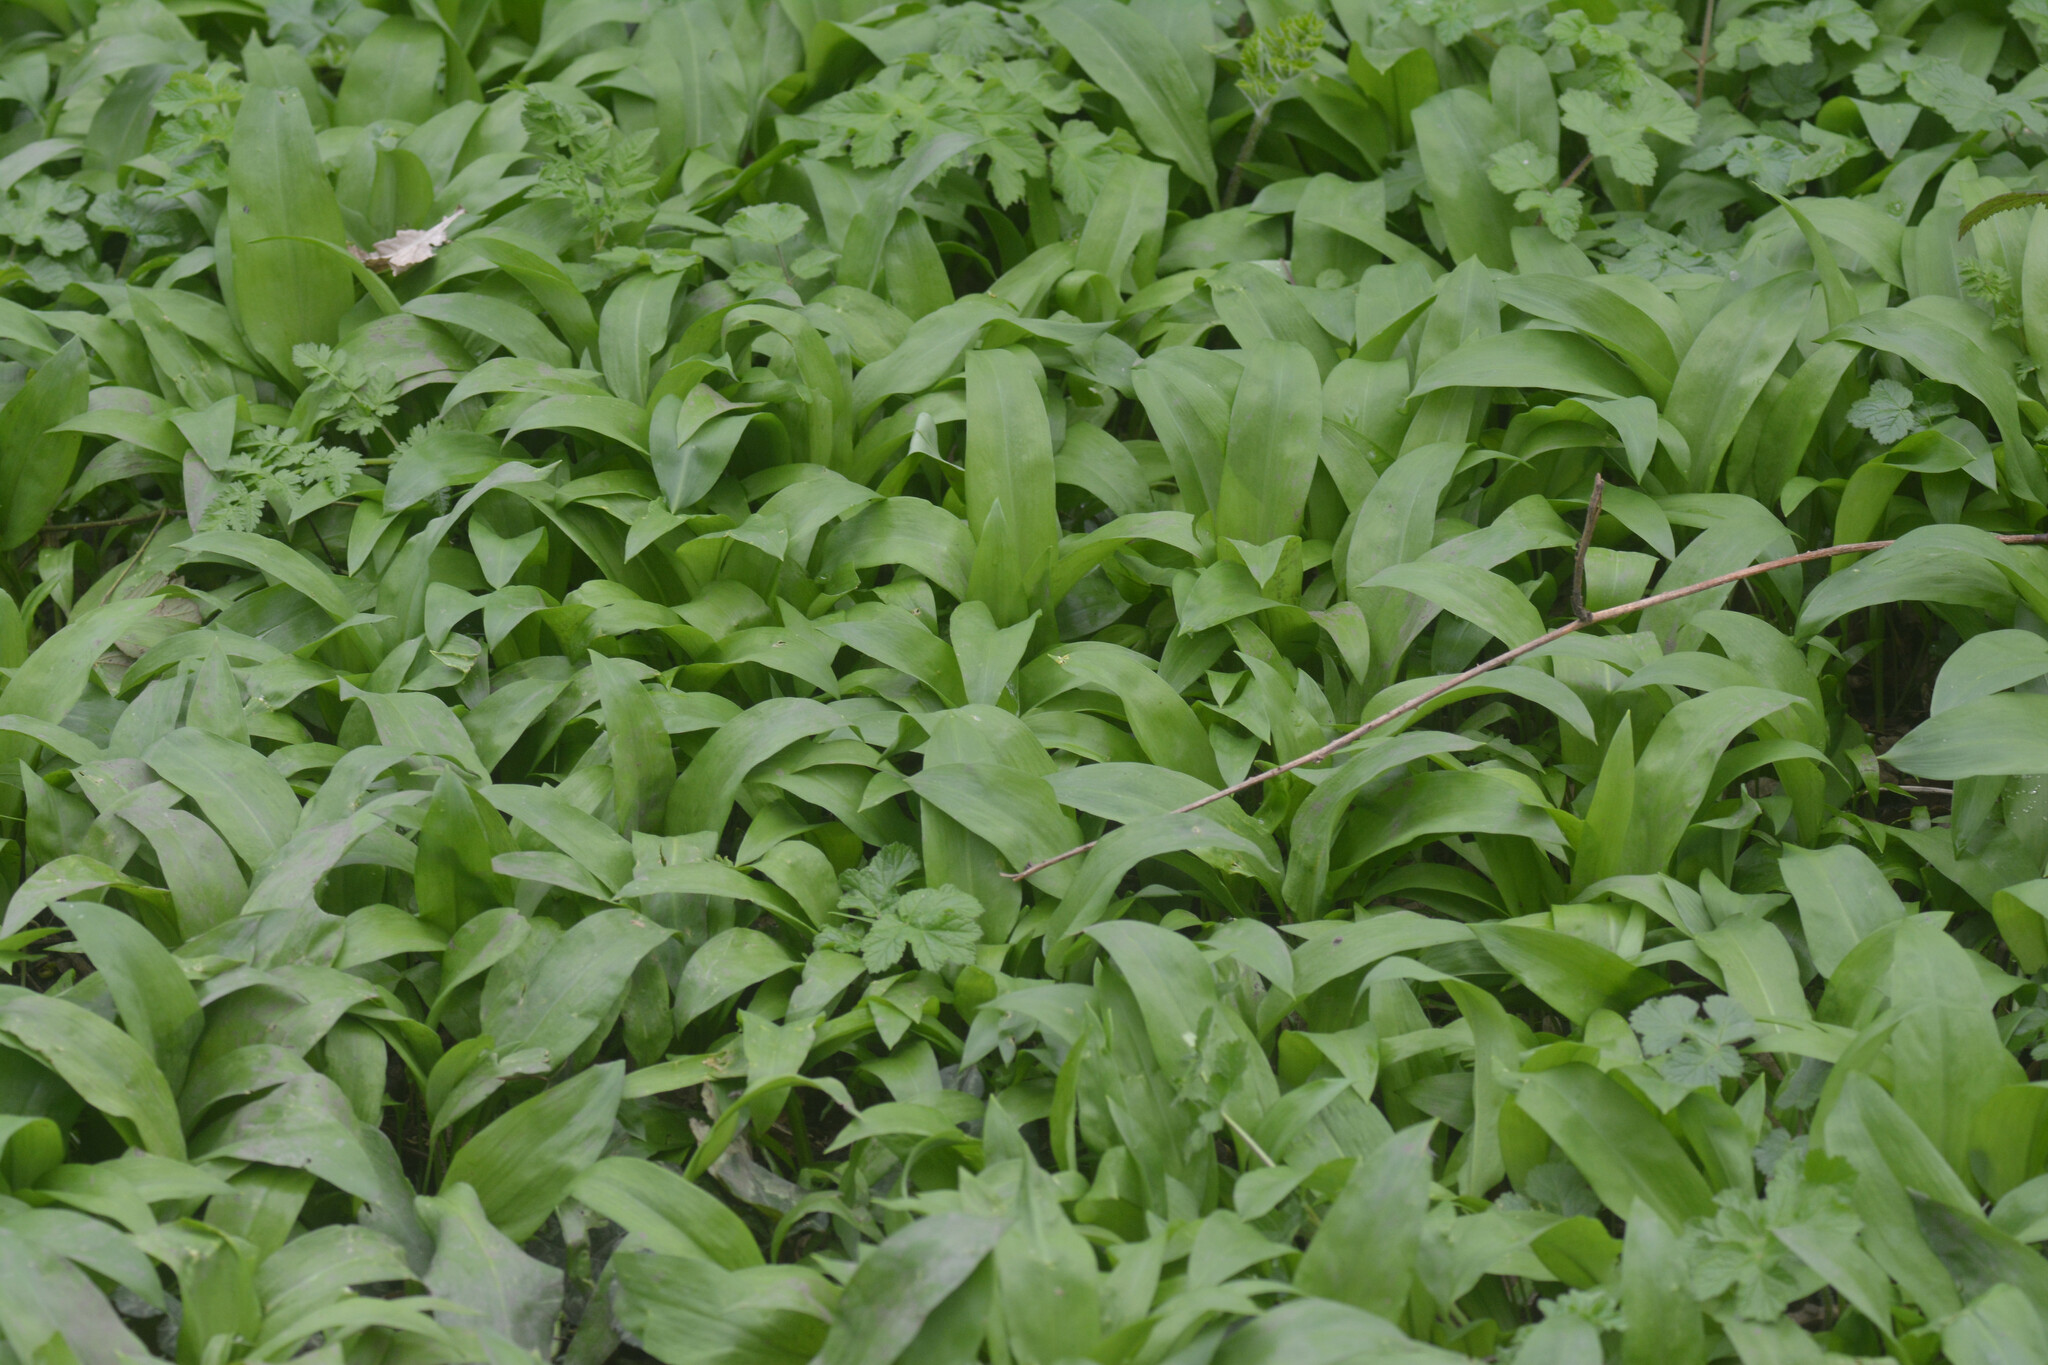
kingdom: Plantae
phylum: Tracheophyta
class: Liliopsida
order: Asparagales
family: Amaryllidaceae
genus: Allium
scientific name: Allium ursinum
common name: Ramsons
